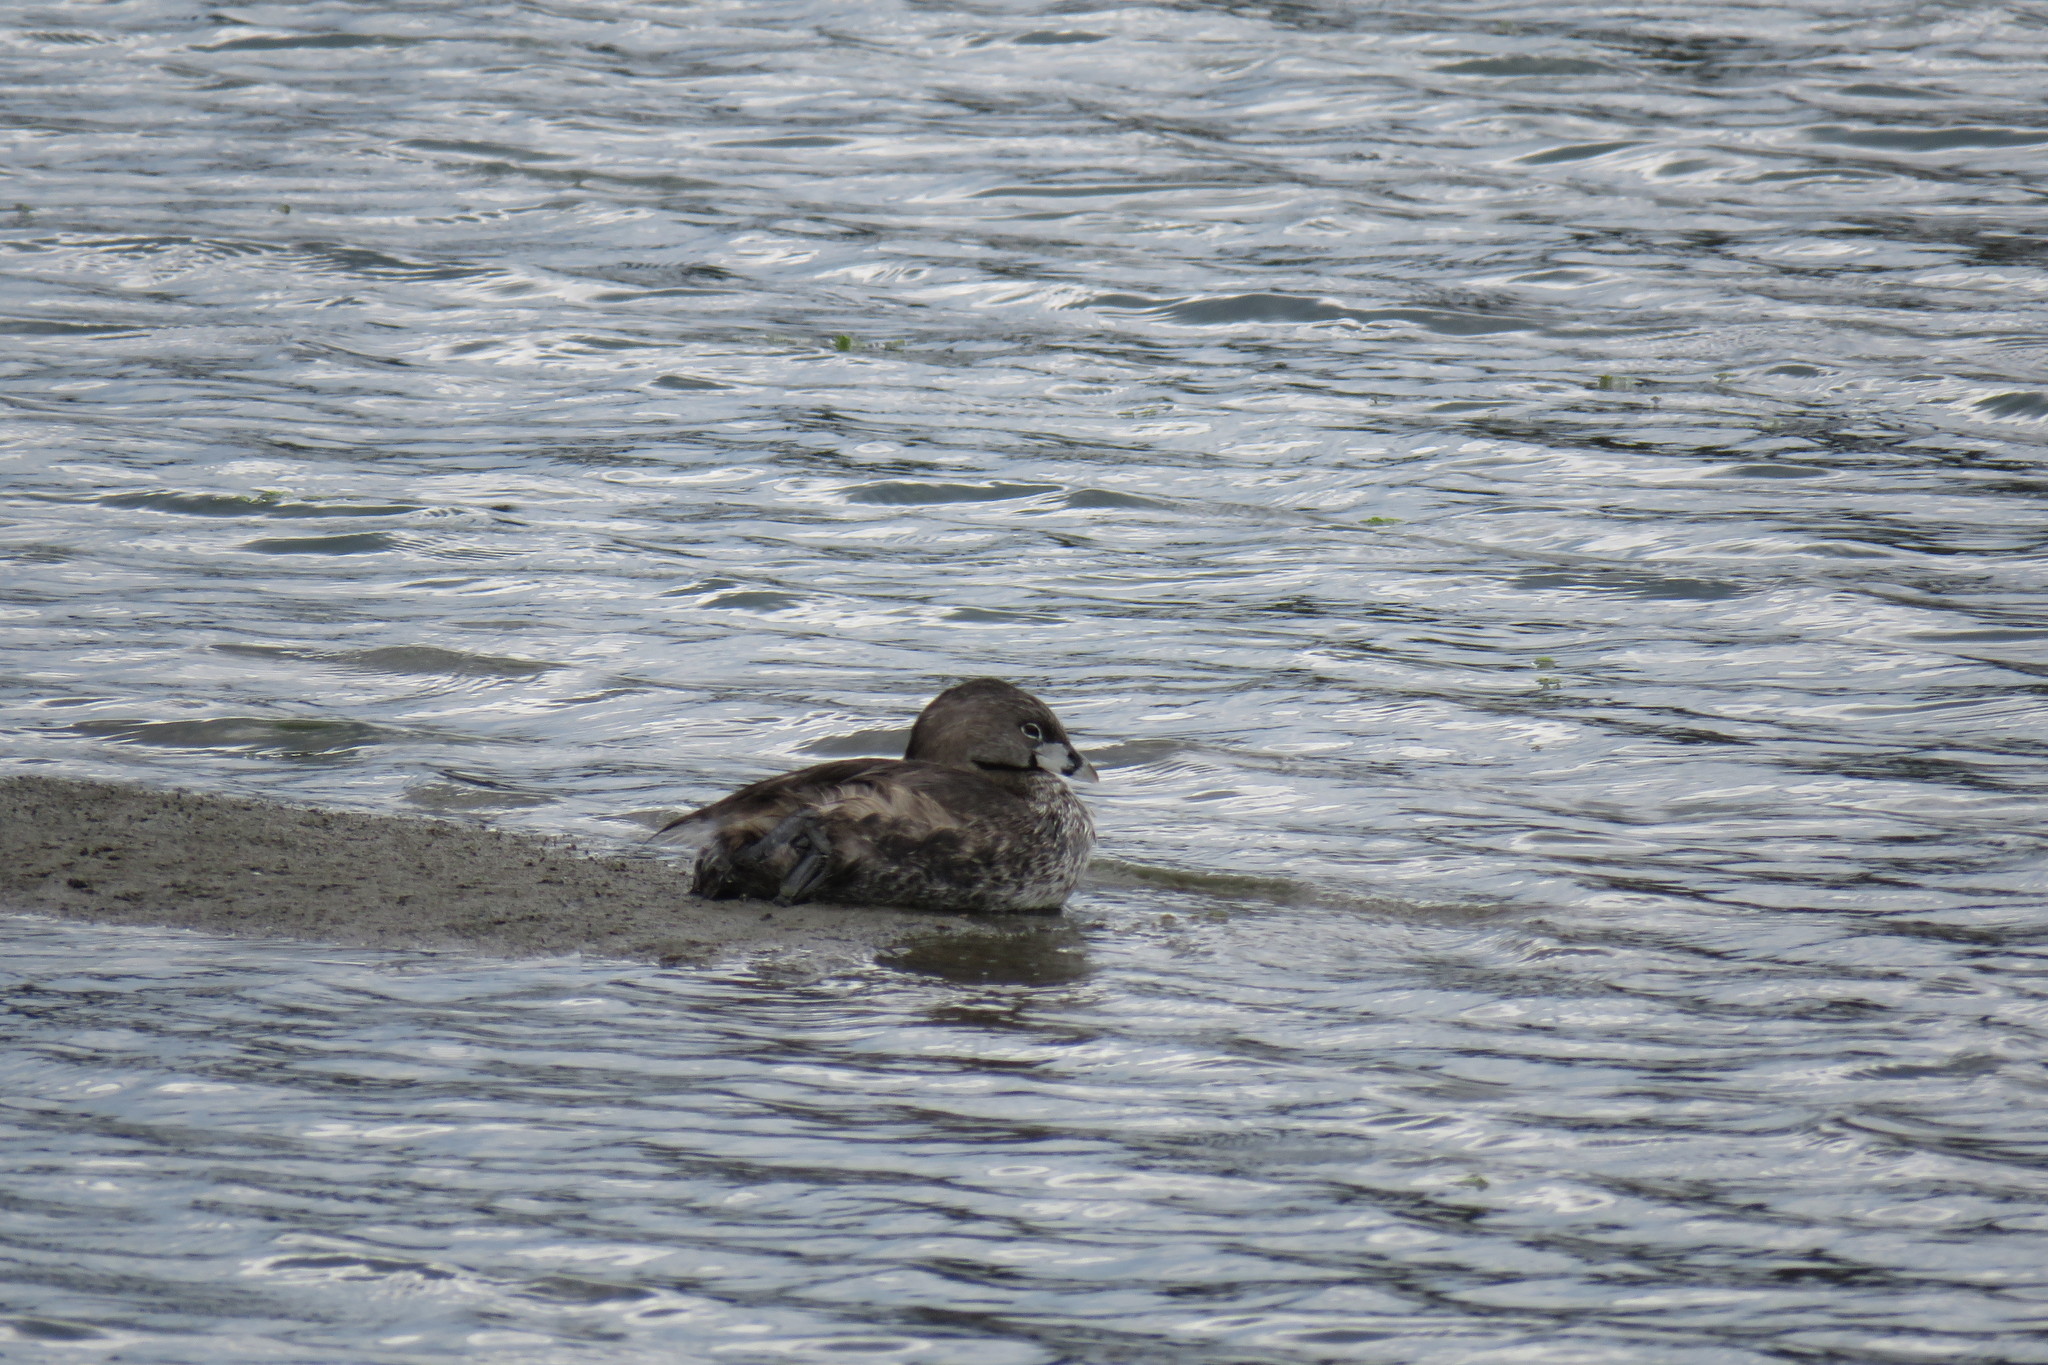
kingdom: Animalia
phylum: Chordata
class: Aves
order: Podicipediformes
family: Podicipedidae
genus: Podilymbus
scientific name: Podilymbus podiceps
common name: Pied-billed grebe
